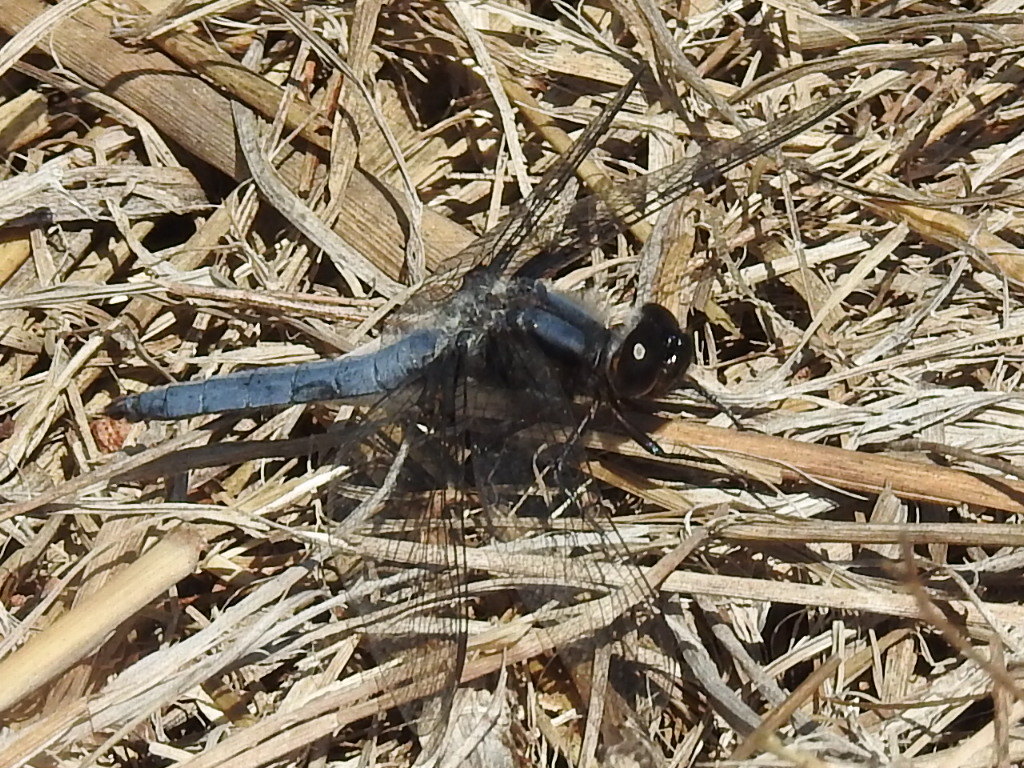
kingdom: Animalia
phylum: Arthropoda
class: Insecta
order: Odonata
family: Libellulidae
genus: Ladona
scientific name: Ladona deplanata
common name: Blue corporal
